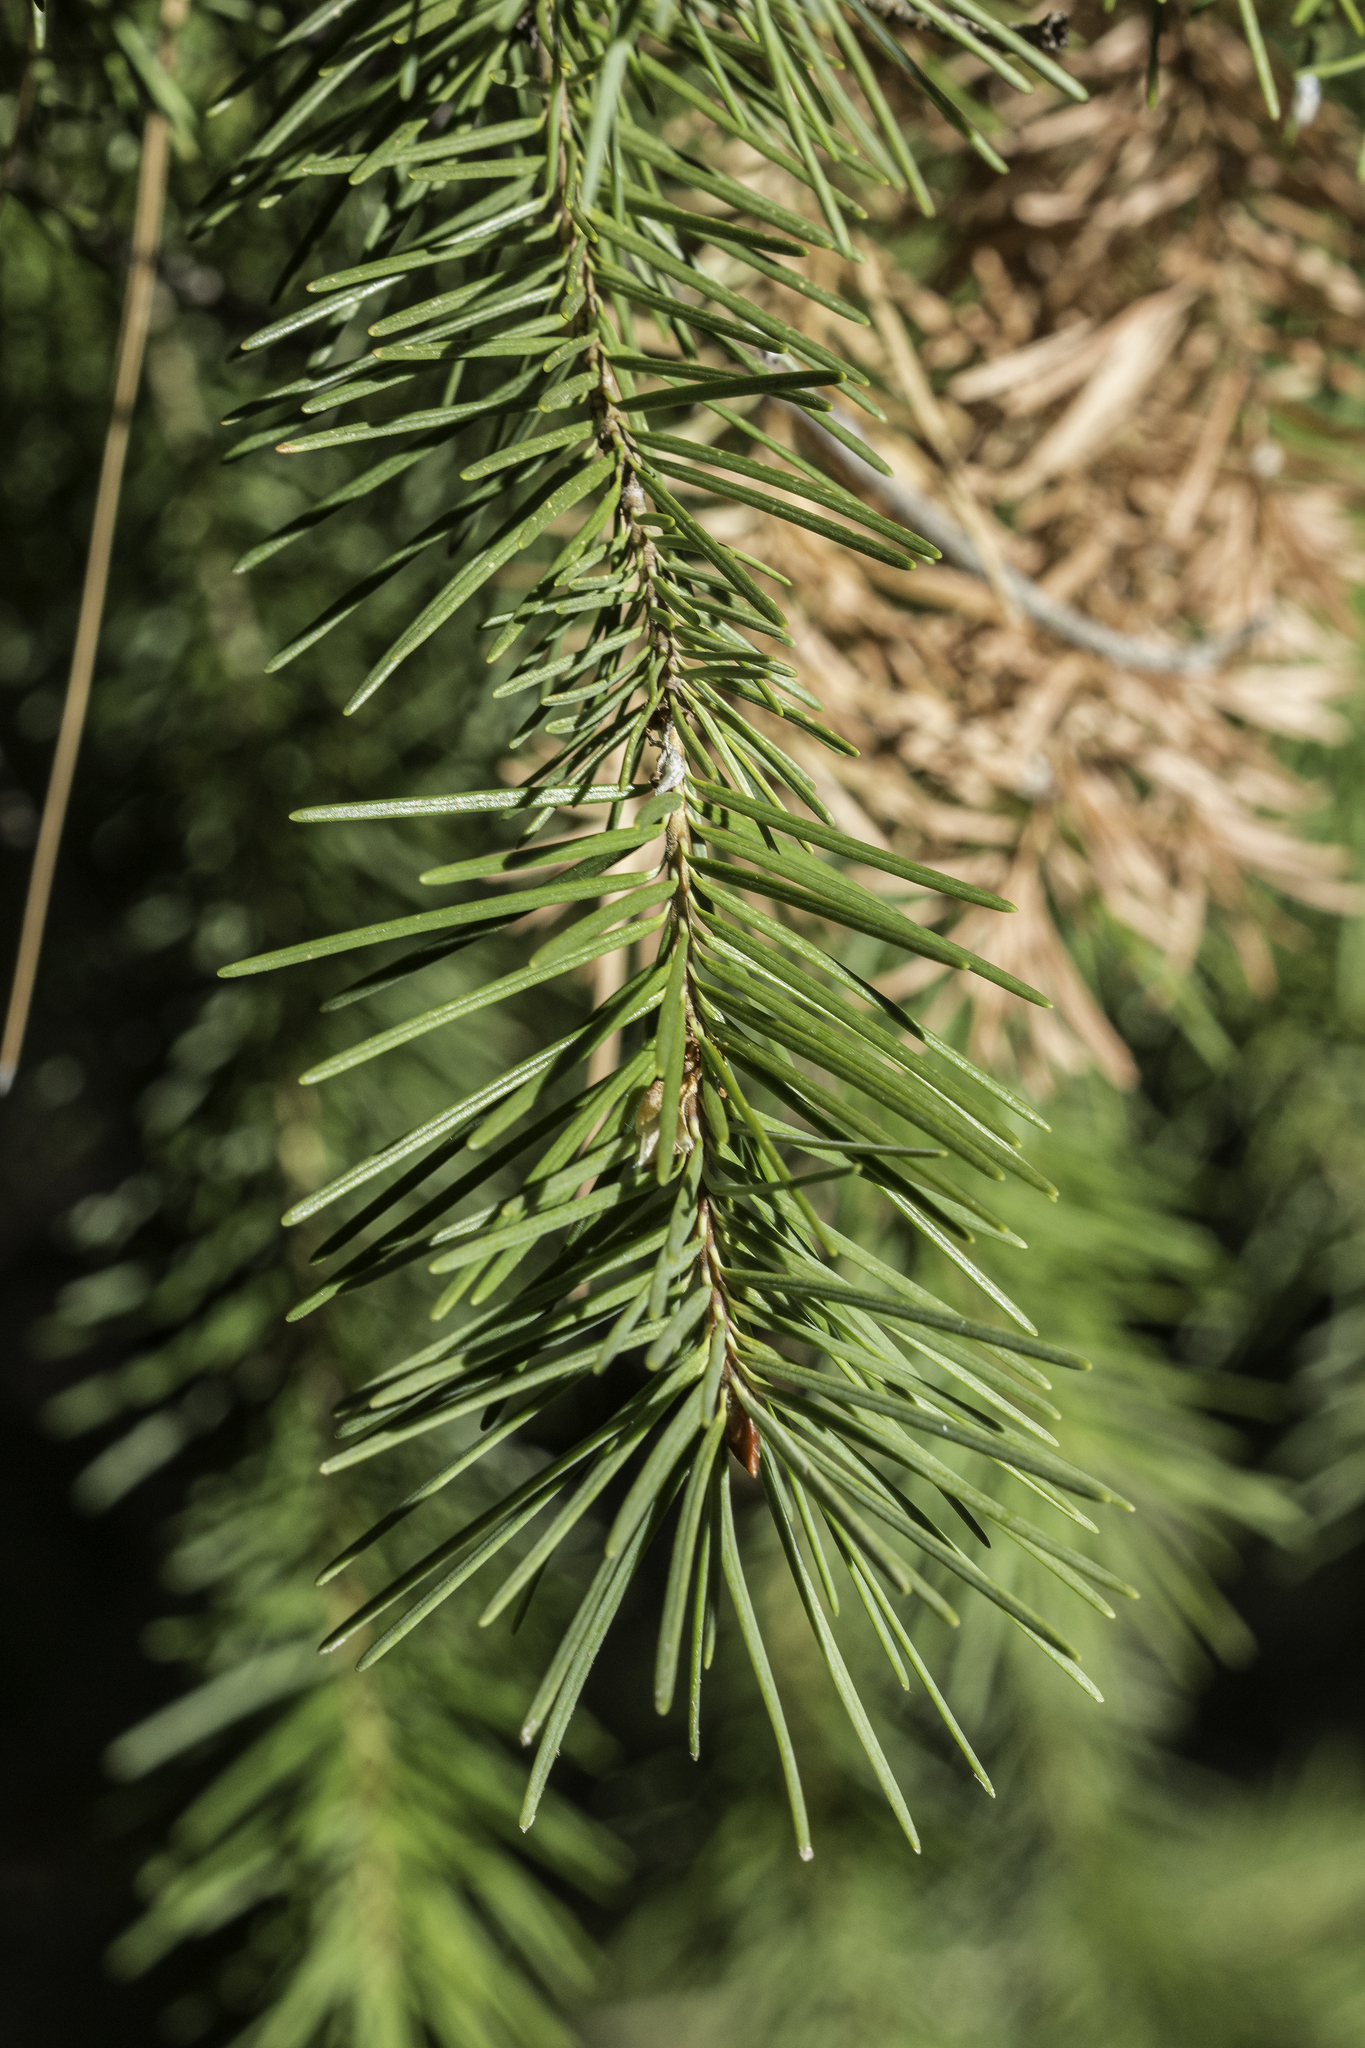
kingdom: Plantae
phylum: Tracheophyta
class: Pinopsida
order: Pinales
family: Pinaceae
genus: Pseudotsuga
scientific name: Pseudotsuga menziesii
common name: Douglas fir
